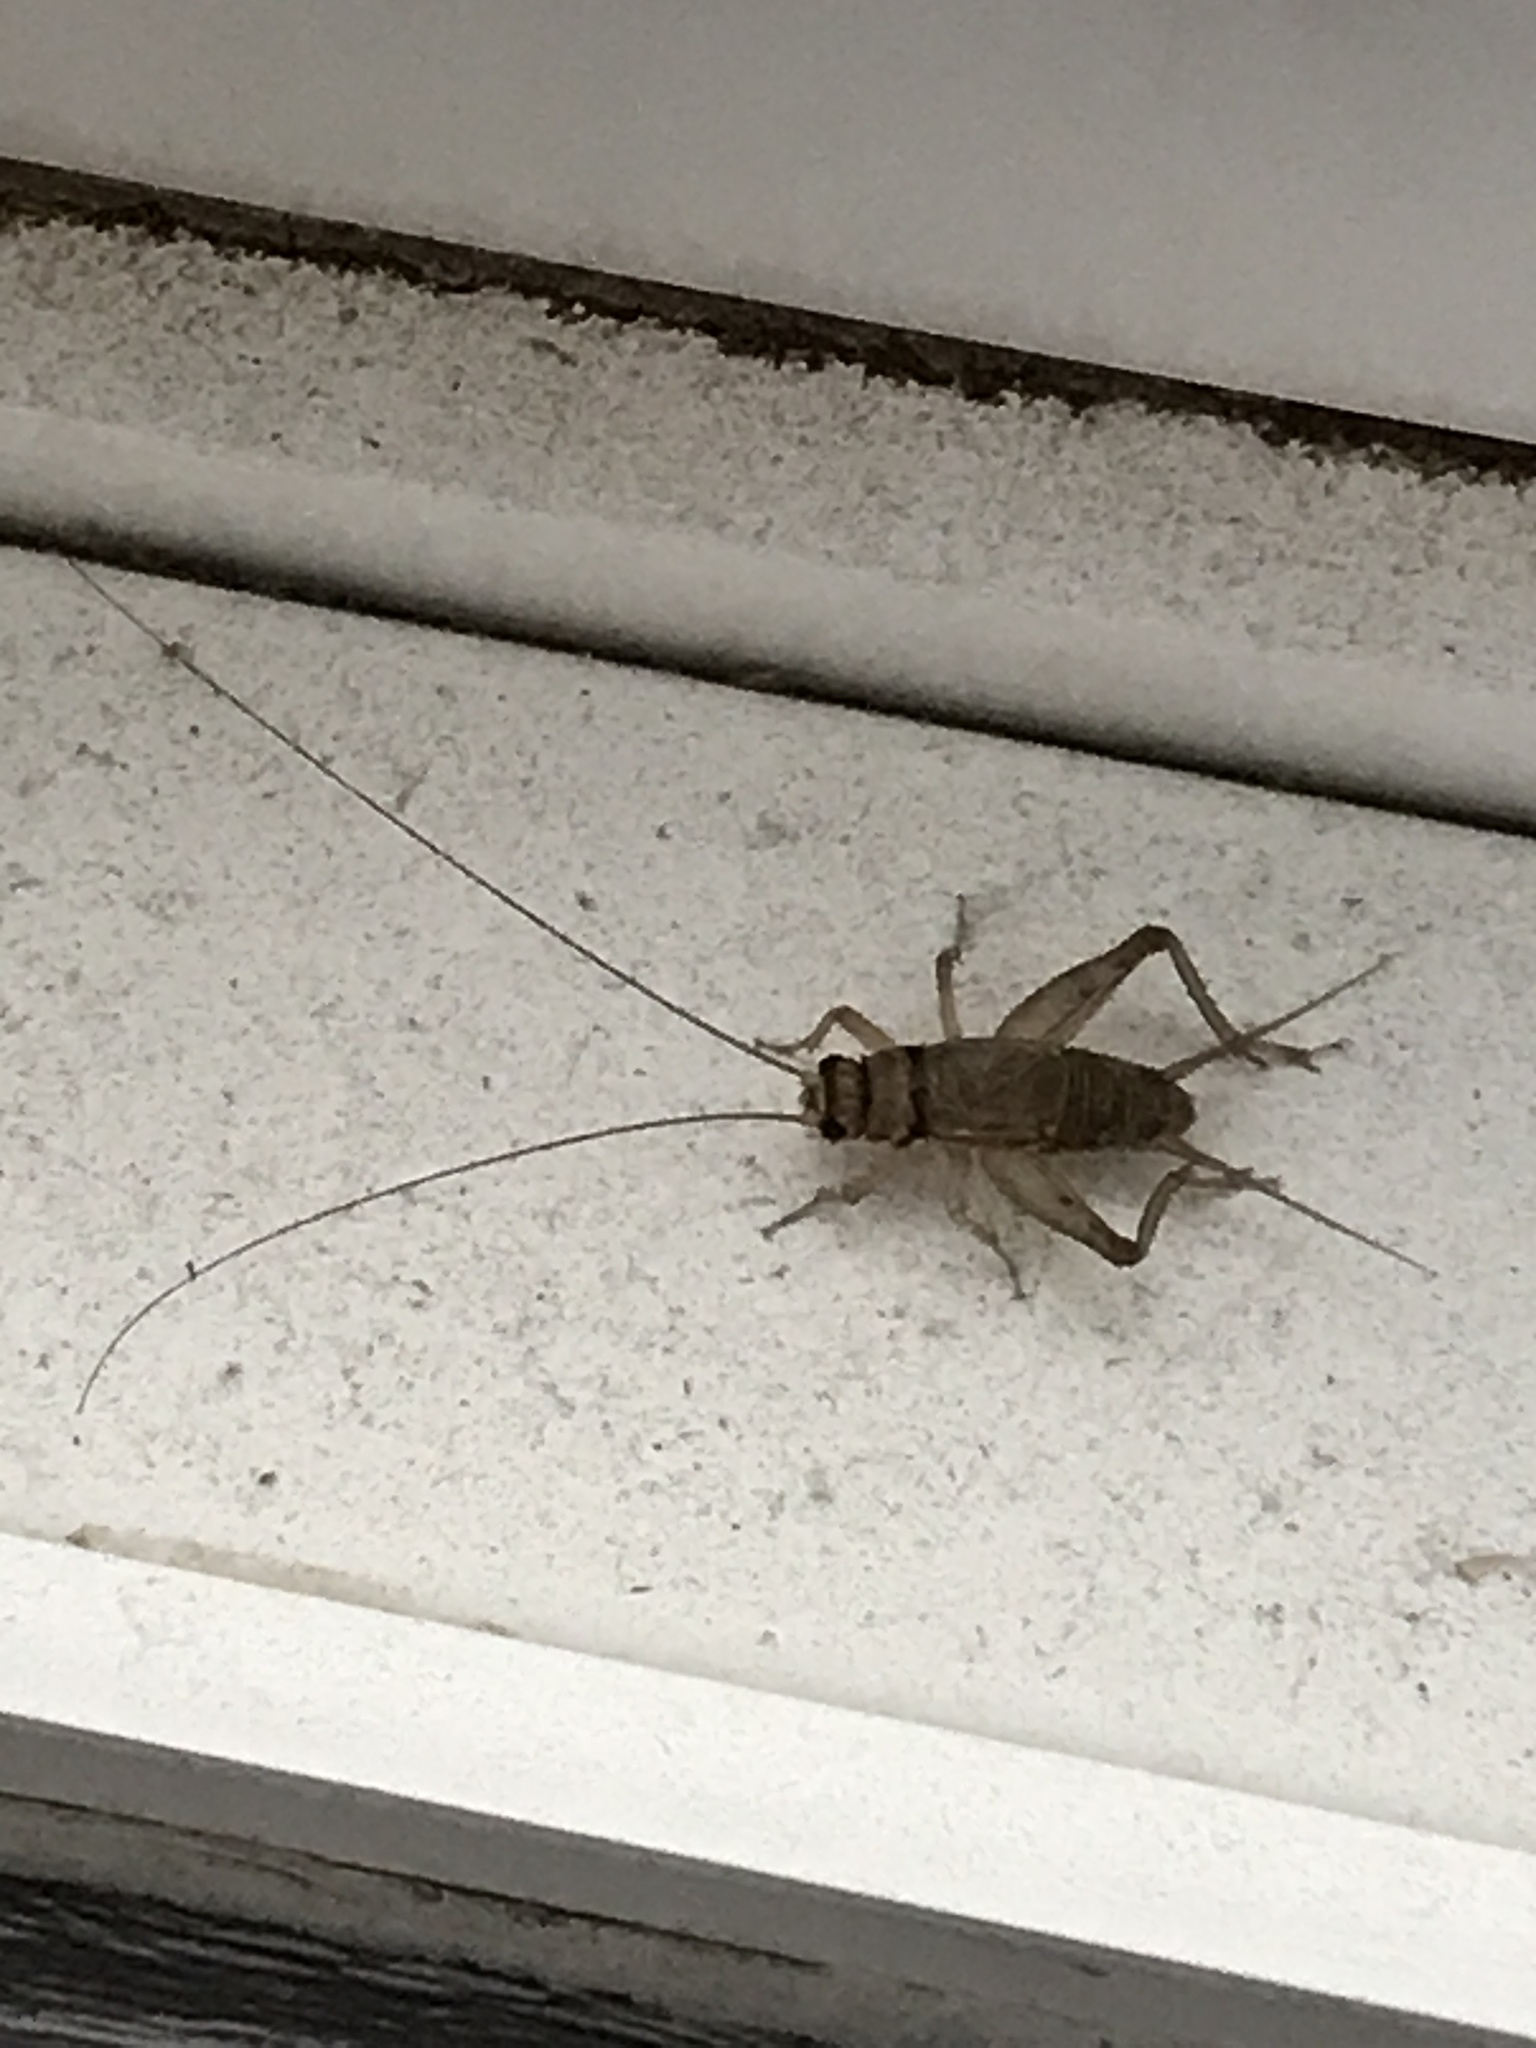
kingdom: Animalia
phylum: Arthropoda
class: Insecta
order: Orthoptera
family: Gryllidae
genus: Gryllodes
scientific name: Gryllodes sigillatus
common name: Tropical house cricket
